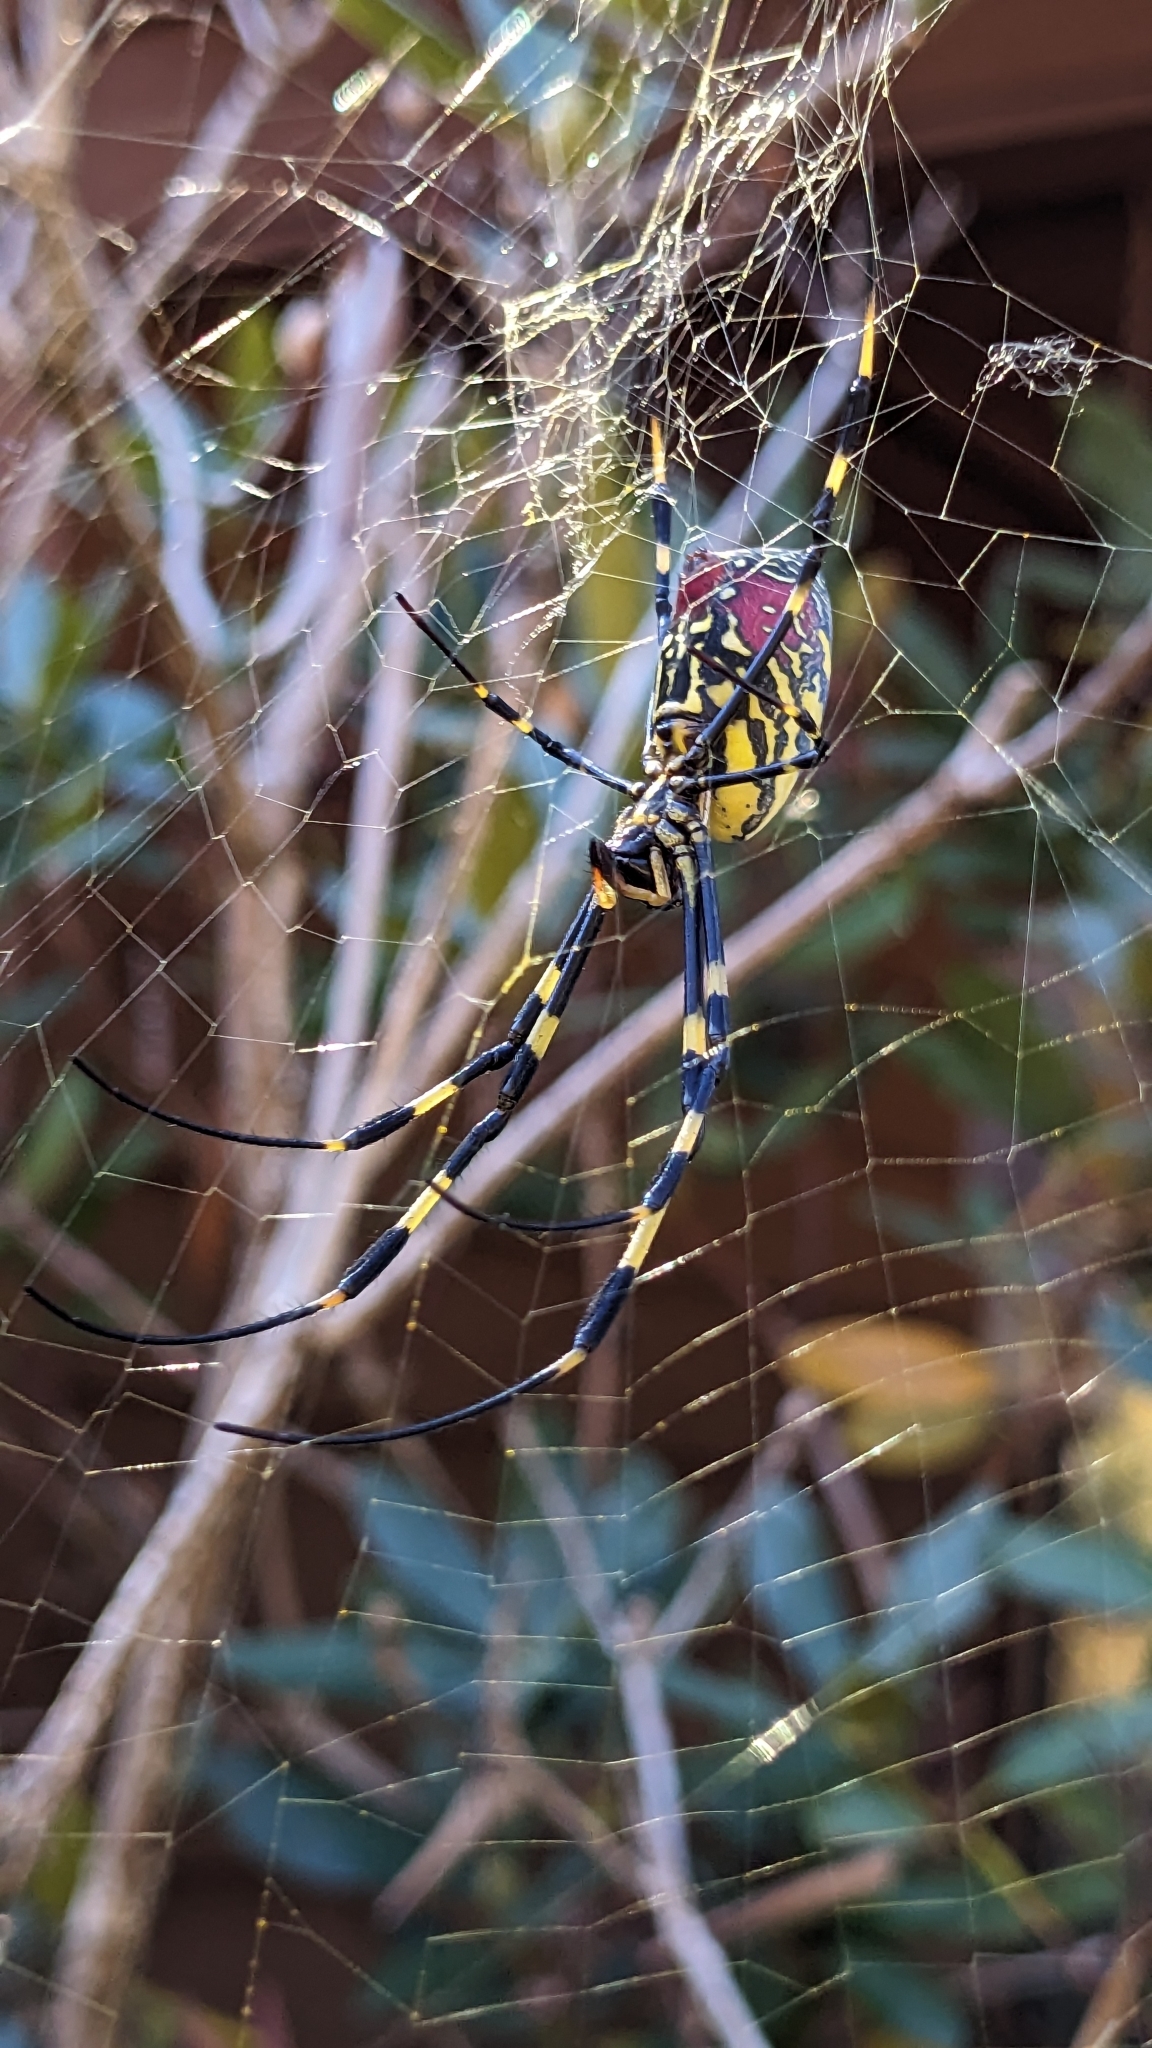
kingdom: Animalia
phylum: Arthropoda
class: Arachnida
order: Araneae
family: Araneidae
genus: Trichonephila
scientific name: Trichonephila clavata
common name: Jorō spider
